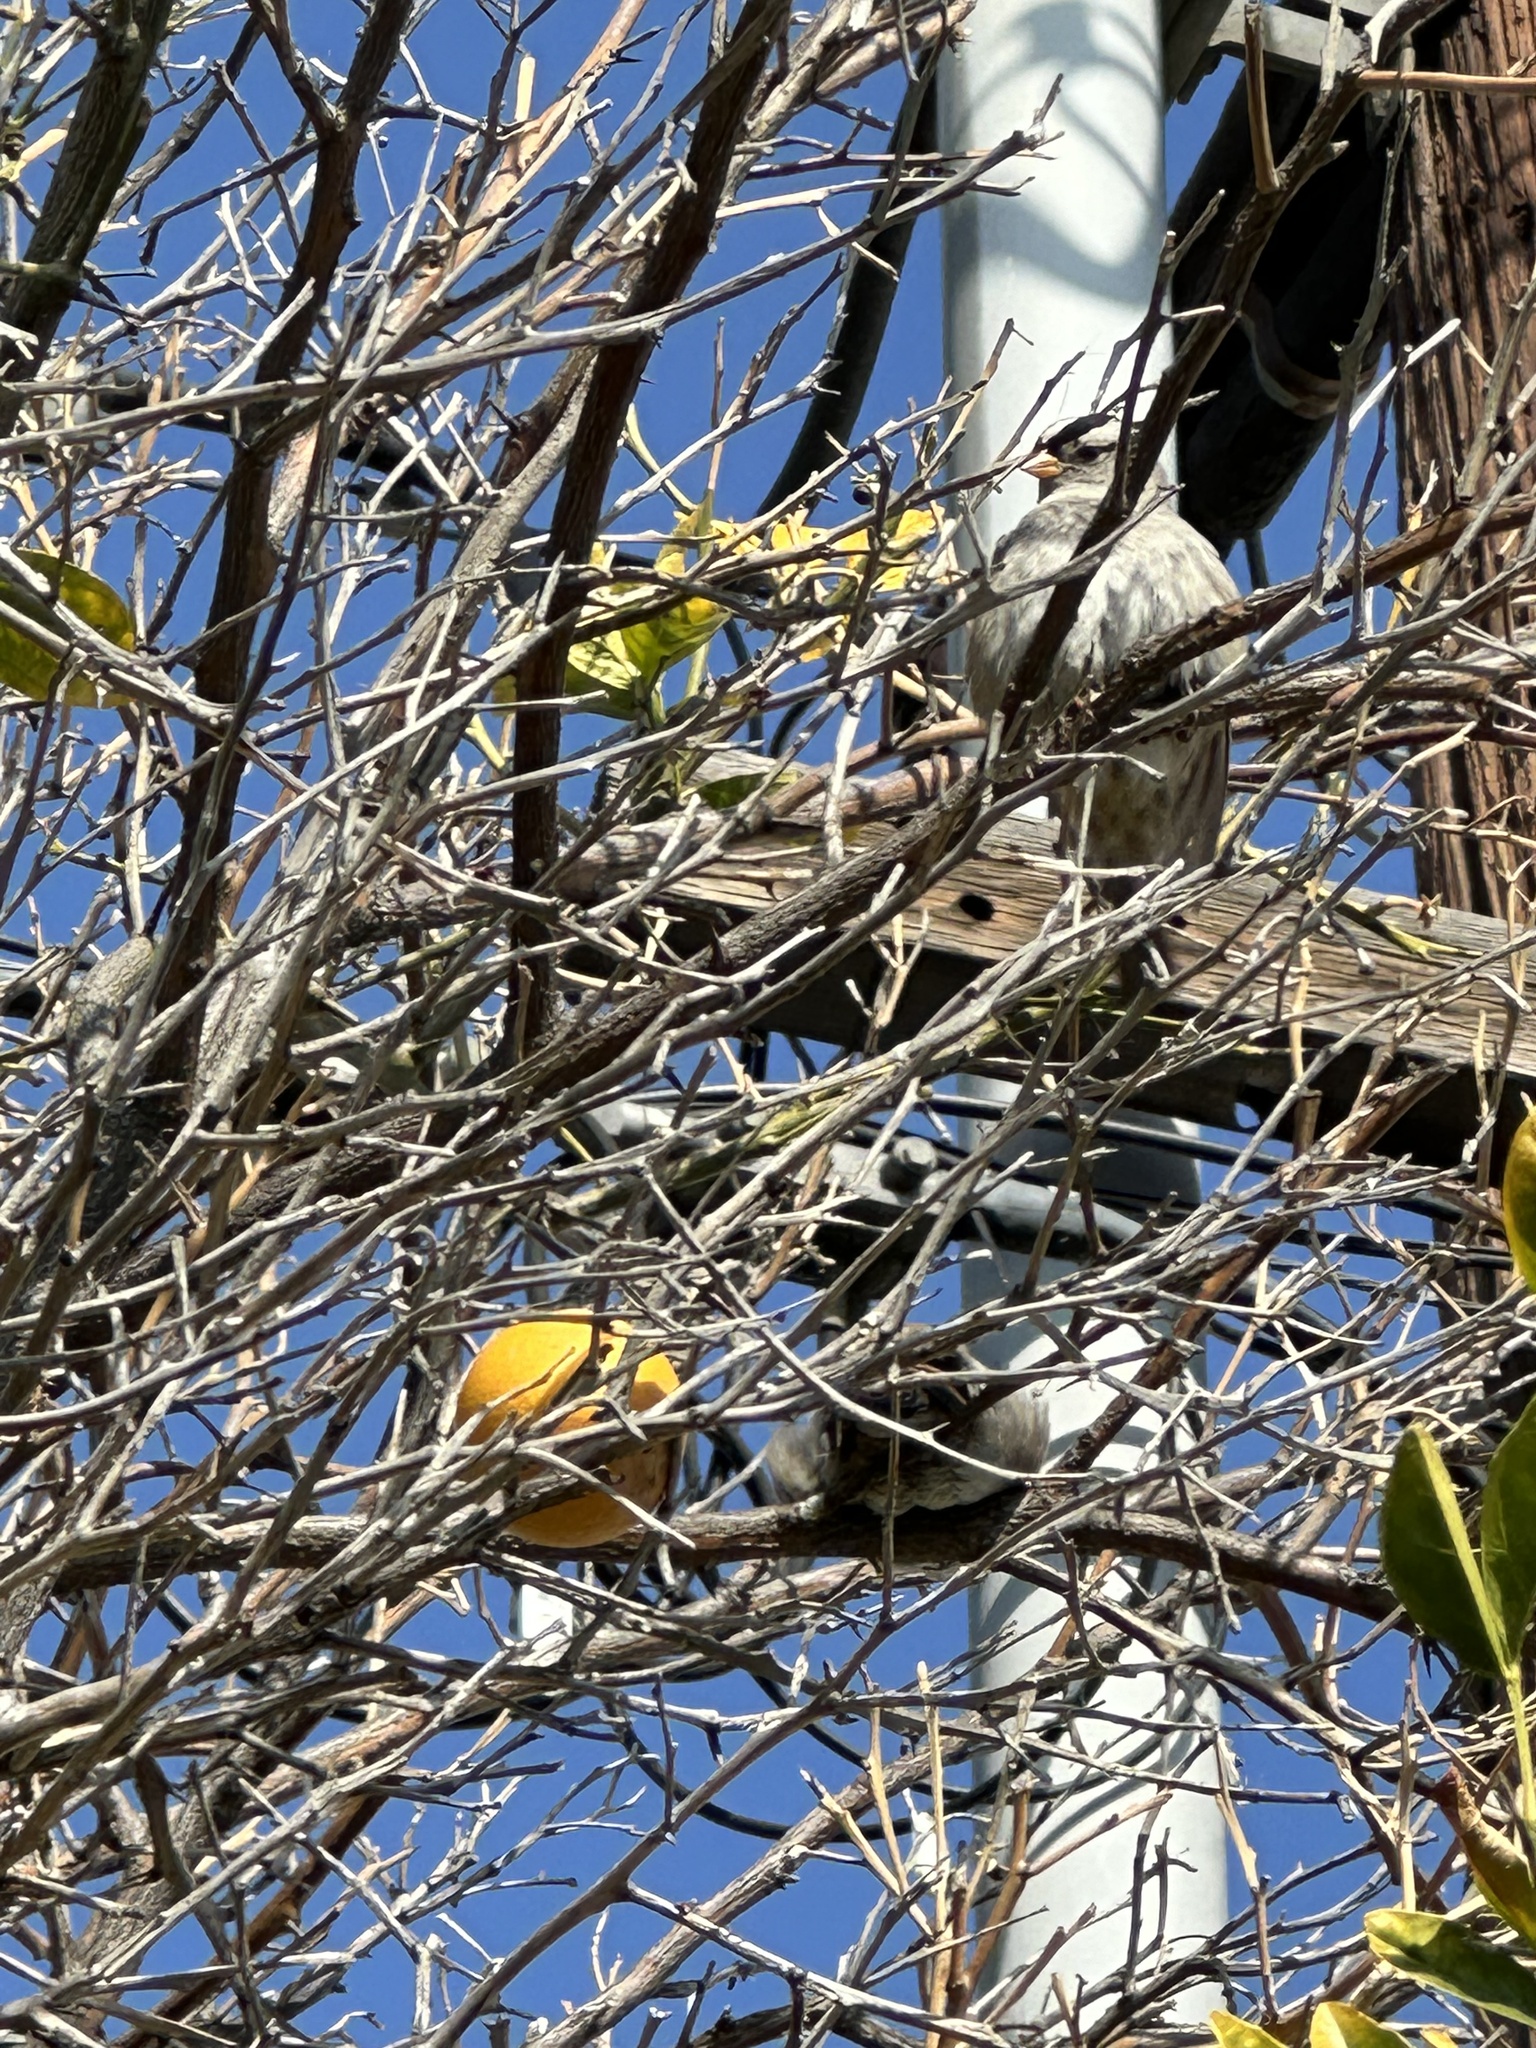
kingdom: Animalia
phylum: Chordata
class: Aves
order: Passeriformes
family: Passeridae
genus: Passer
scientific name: Passer domesticus
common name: House sparrow
